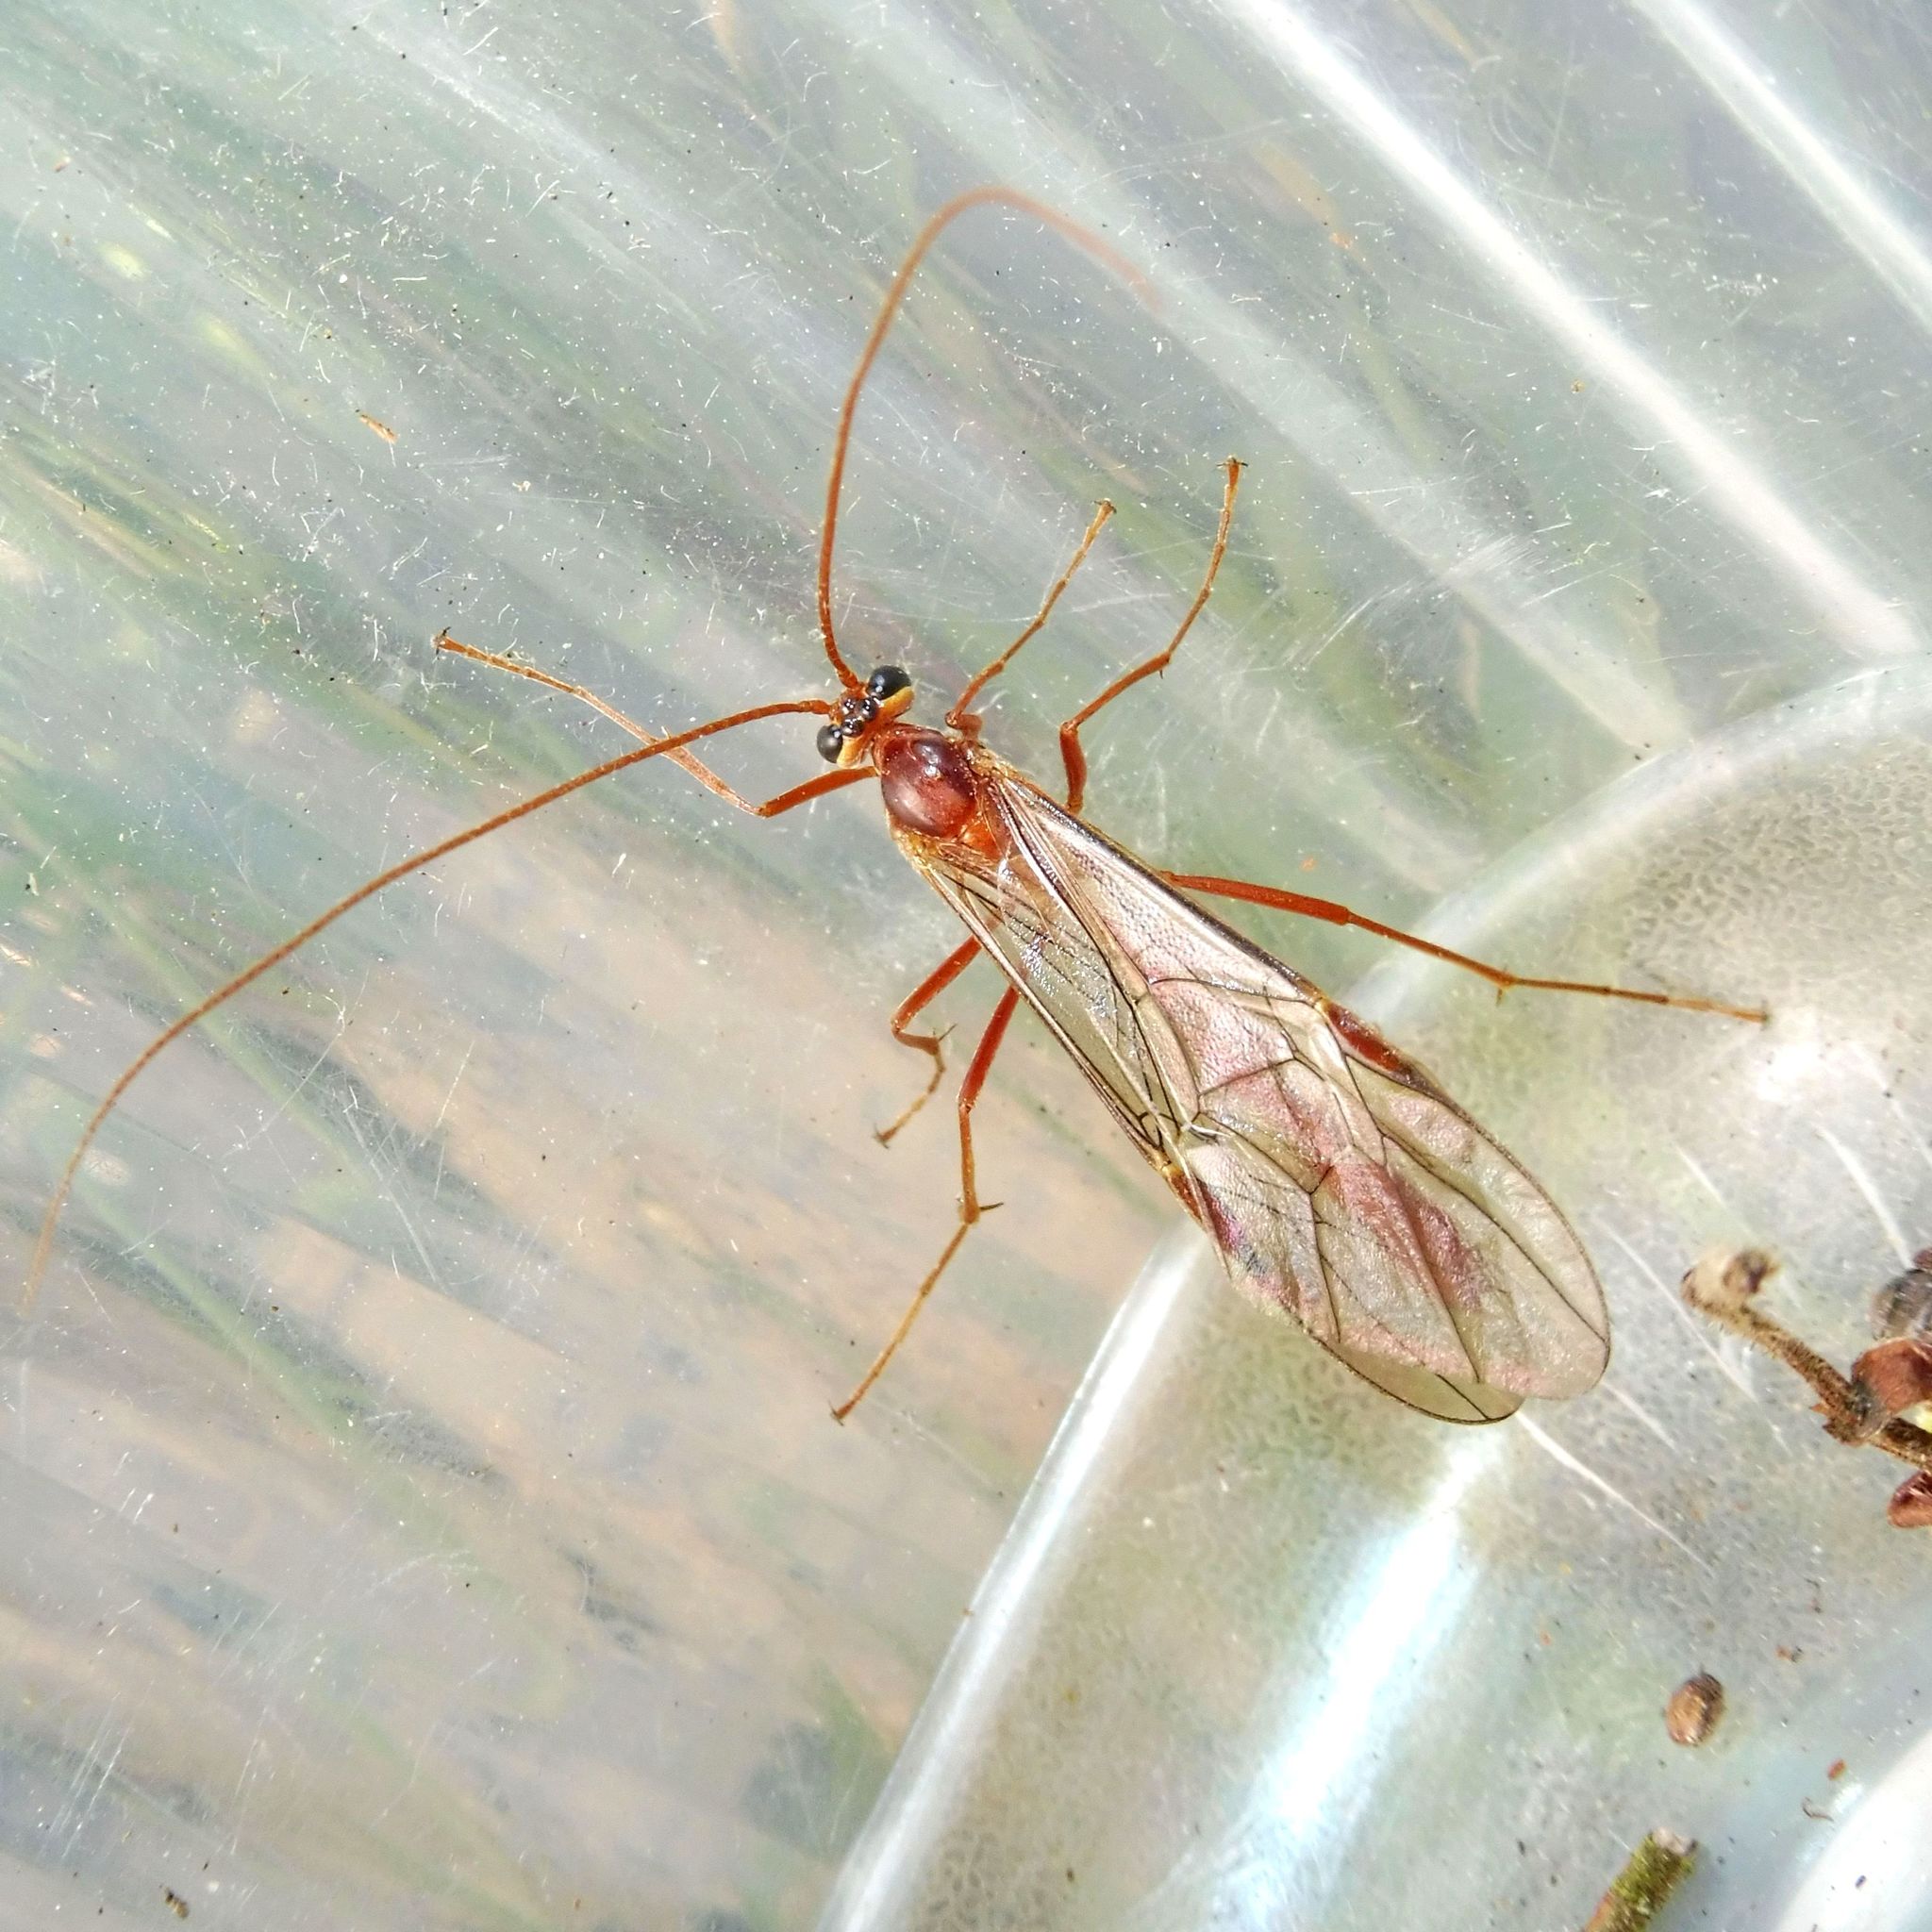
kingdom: Animalia
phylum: Arthropoda
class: Insecta
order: Hymenoptera
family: Ichneumonidae
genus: Ophion
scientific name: Ophion
